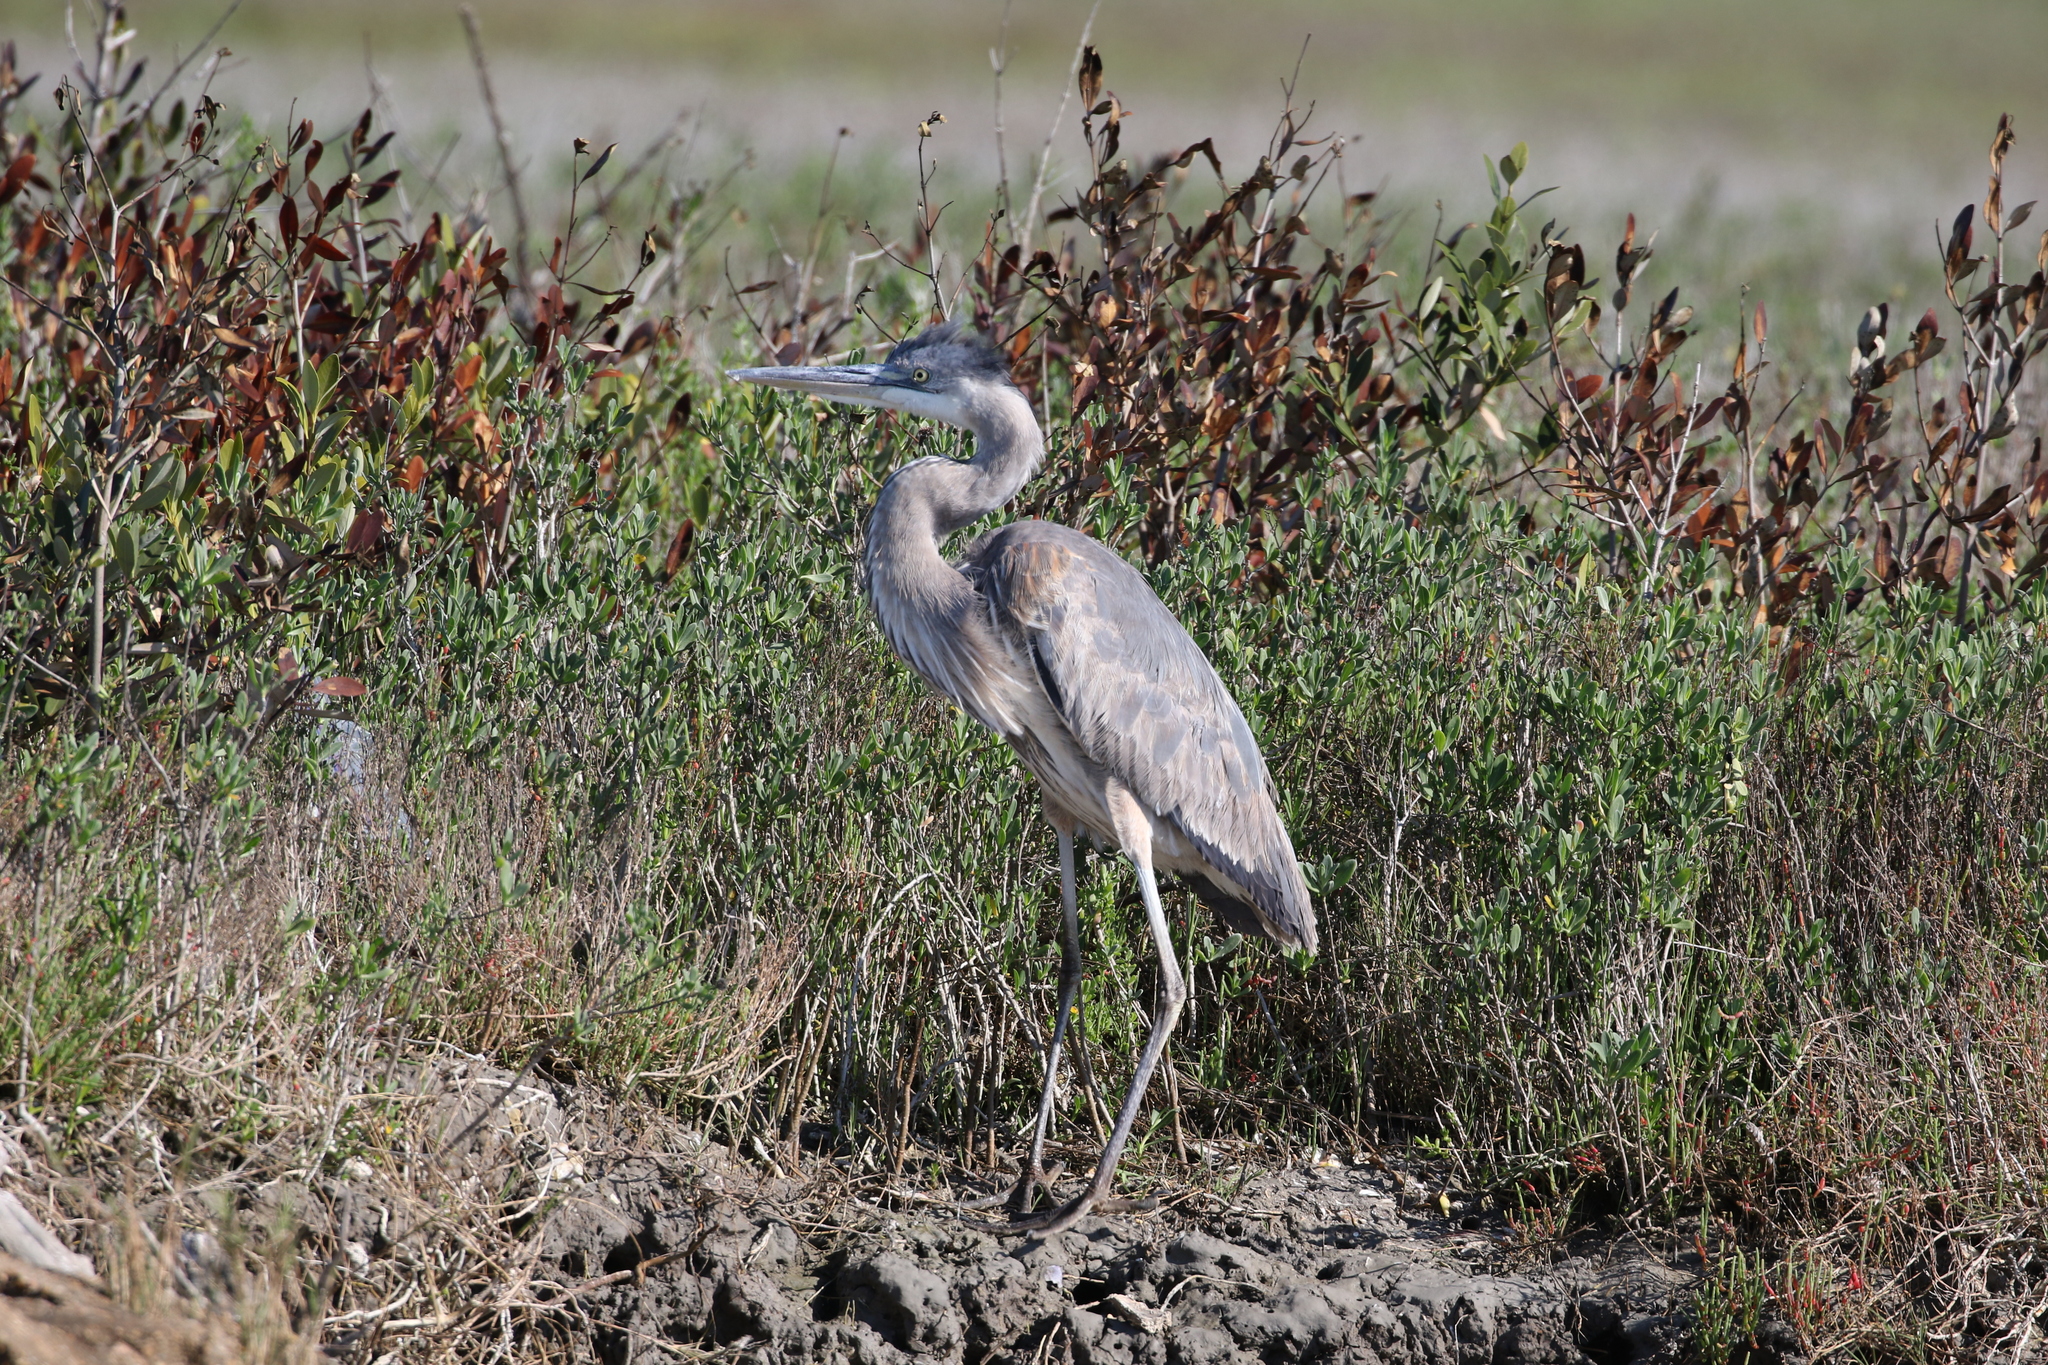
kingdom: Animalia
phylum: Chordata
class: Aves
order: Pelecaniformes
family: Ardeidae
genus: Ardea
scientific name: Ardea herodias
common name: Great blue heron
